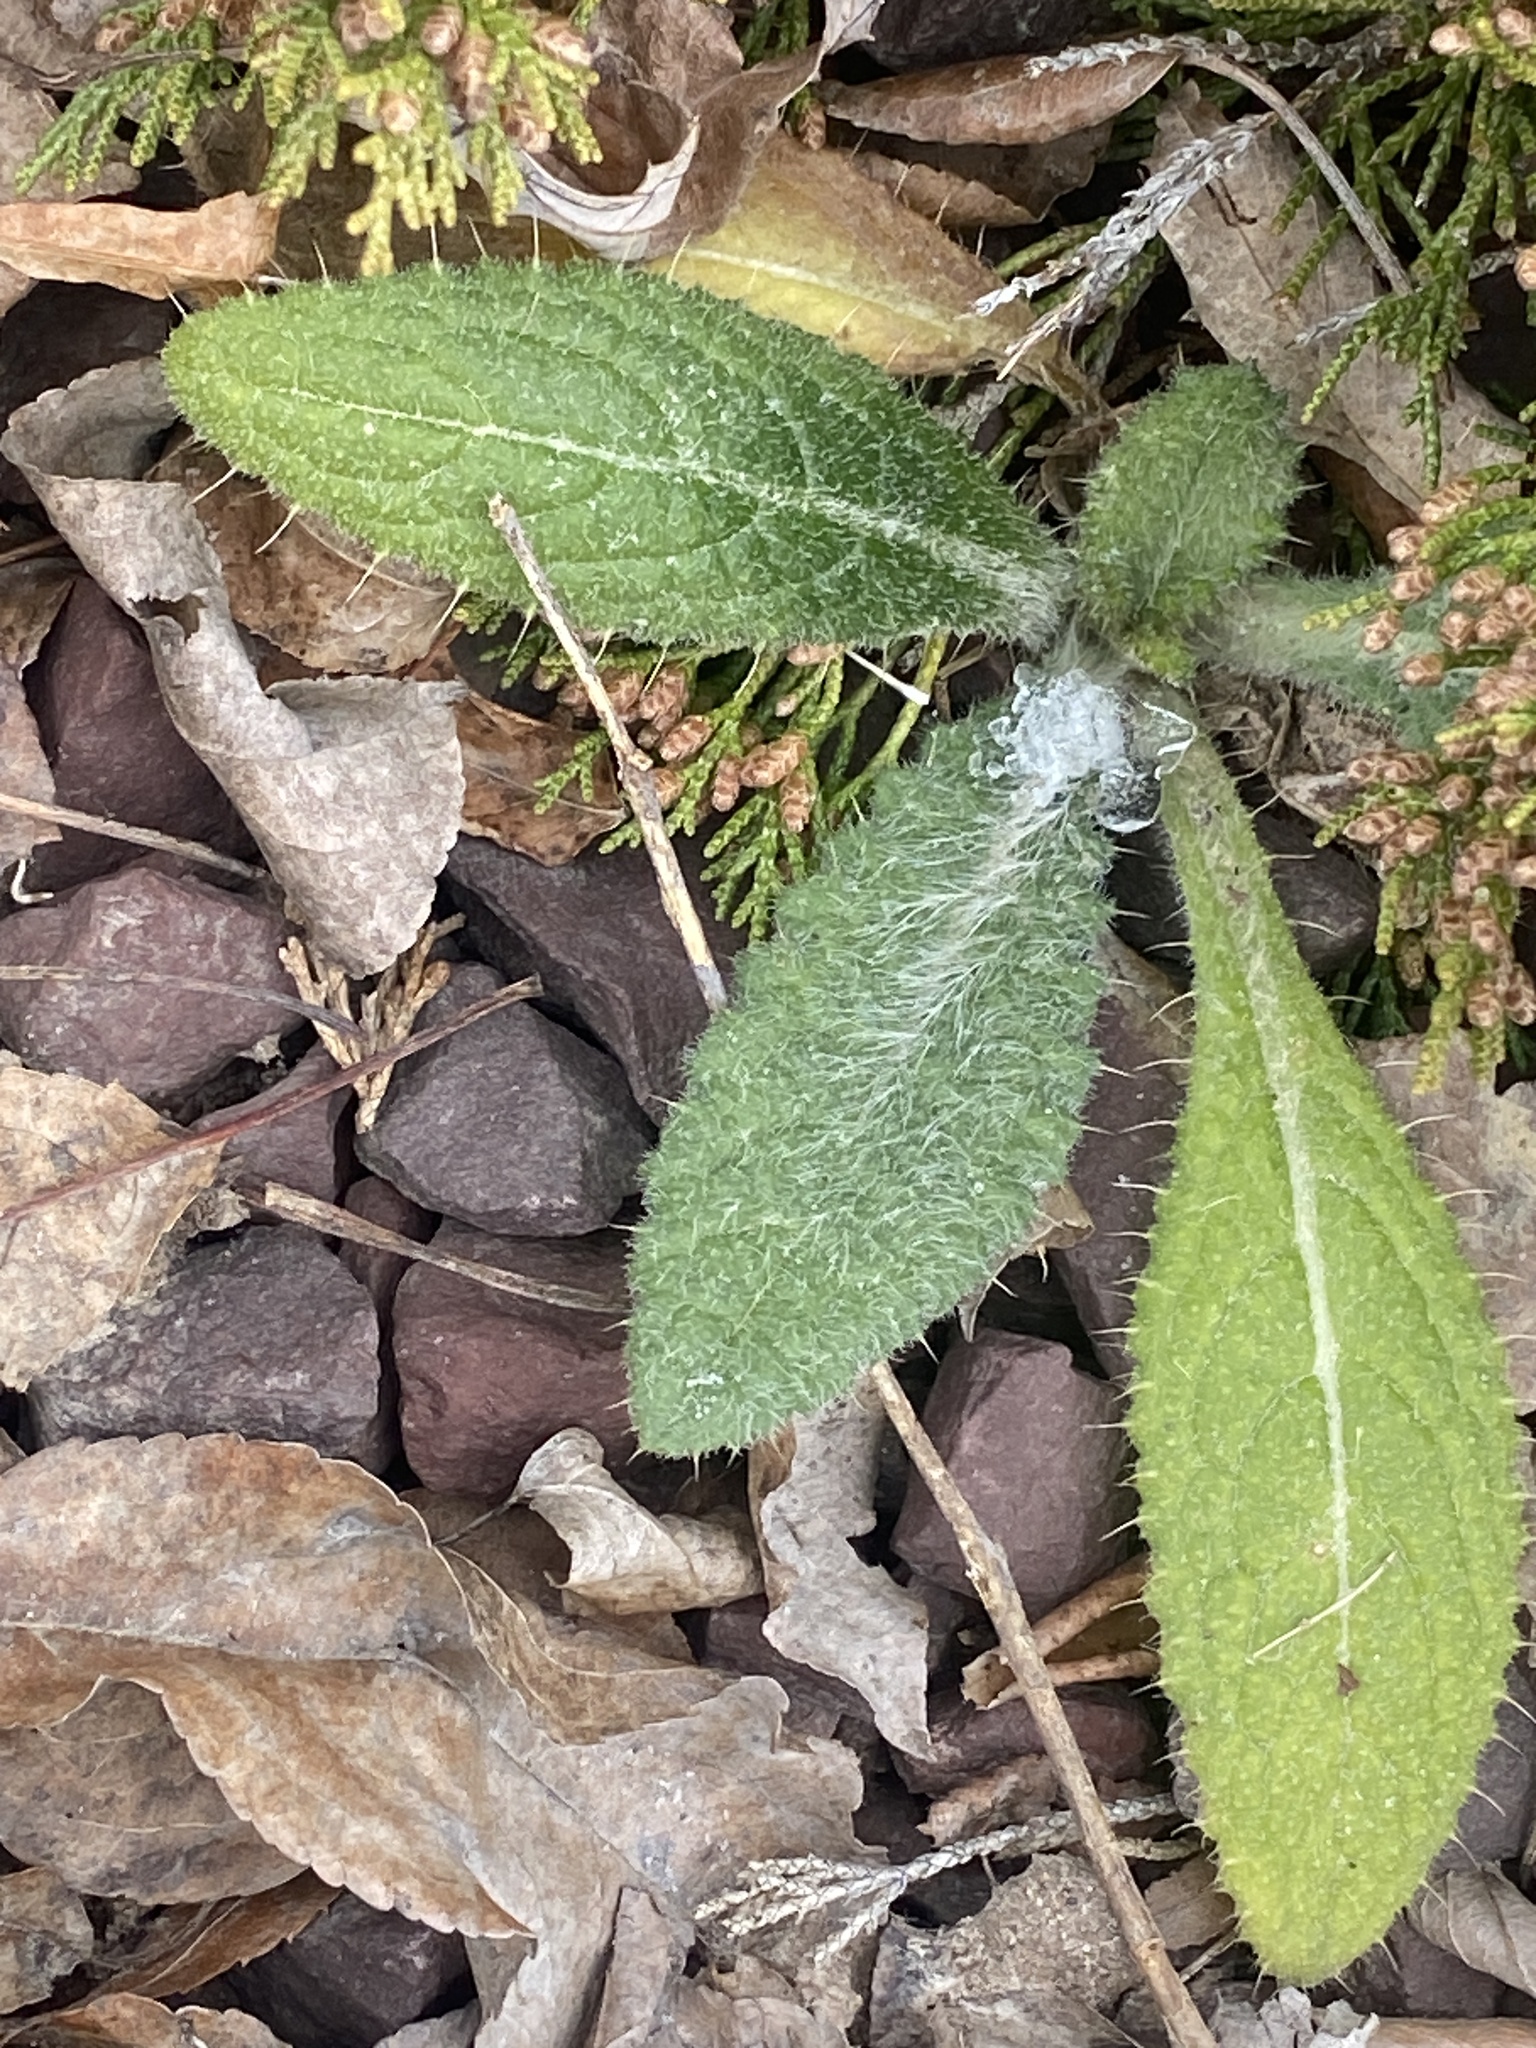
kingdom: Plantae
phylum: Tracheophyta
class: Magnoliopsida
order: Asterales
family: Asteraceae
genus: Cirsium
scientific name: Cirsium vulgare
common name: Bull thistle
